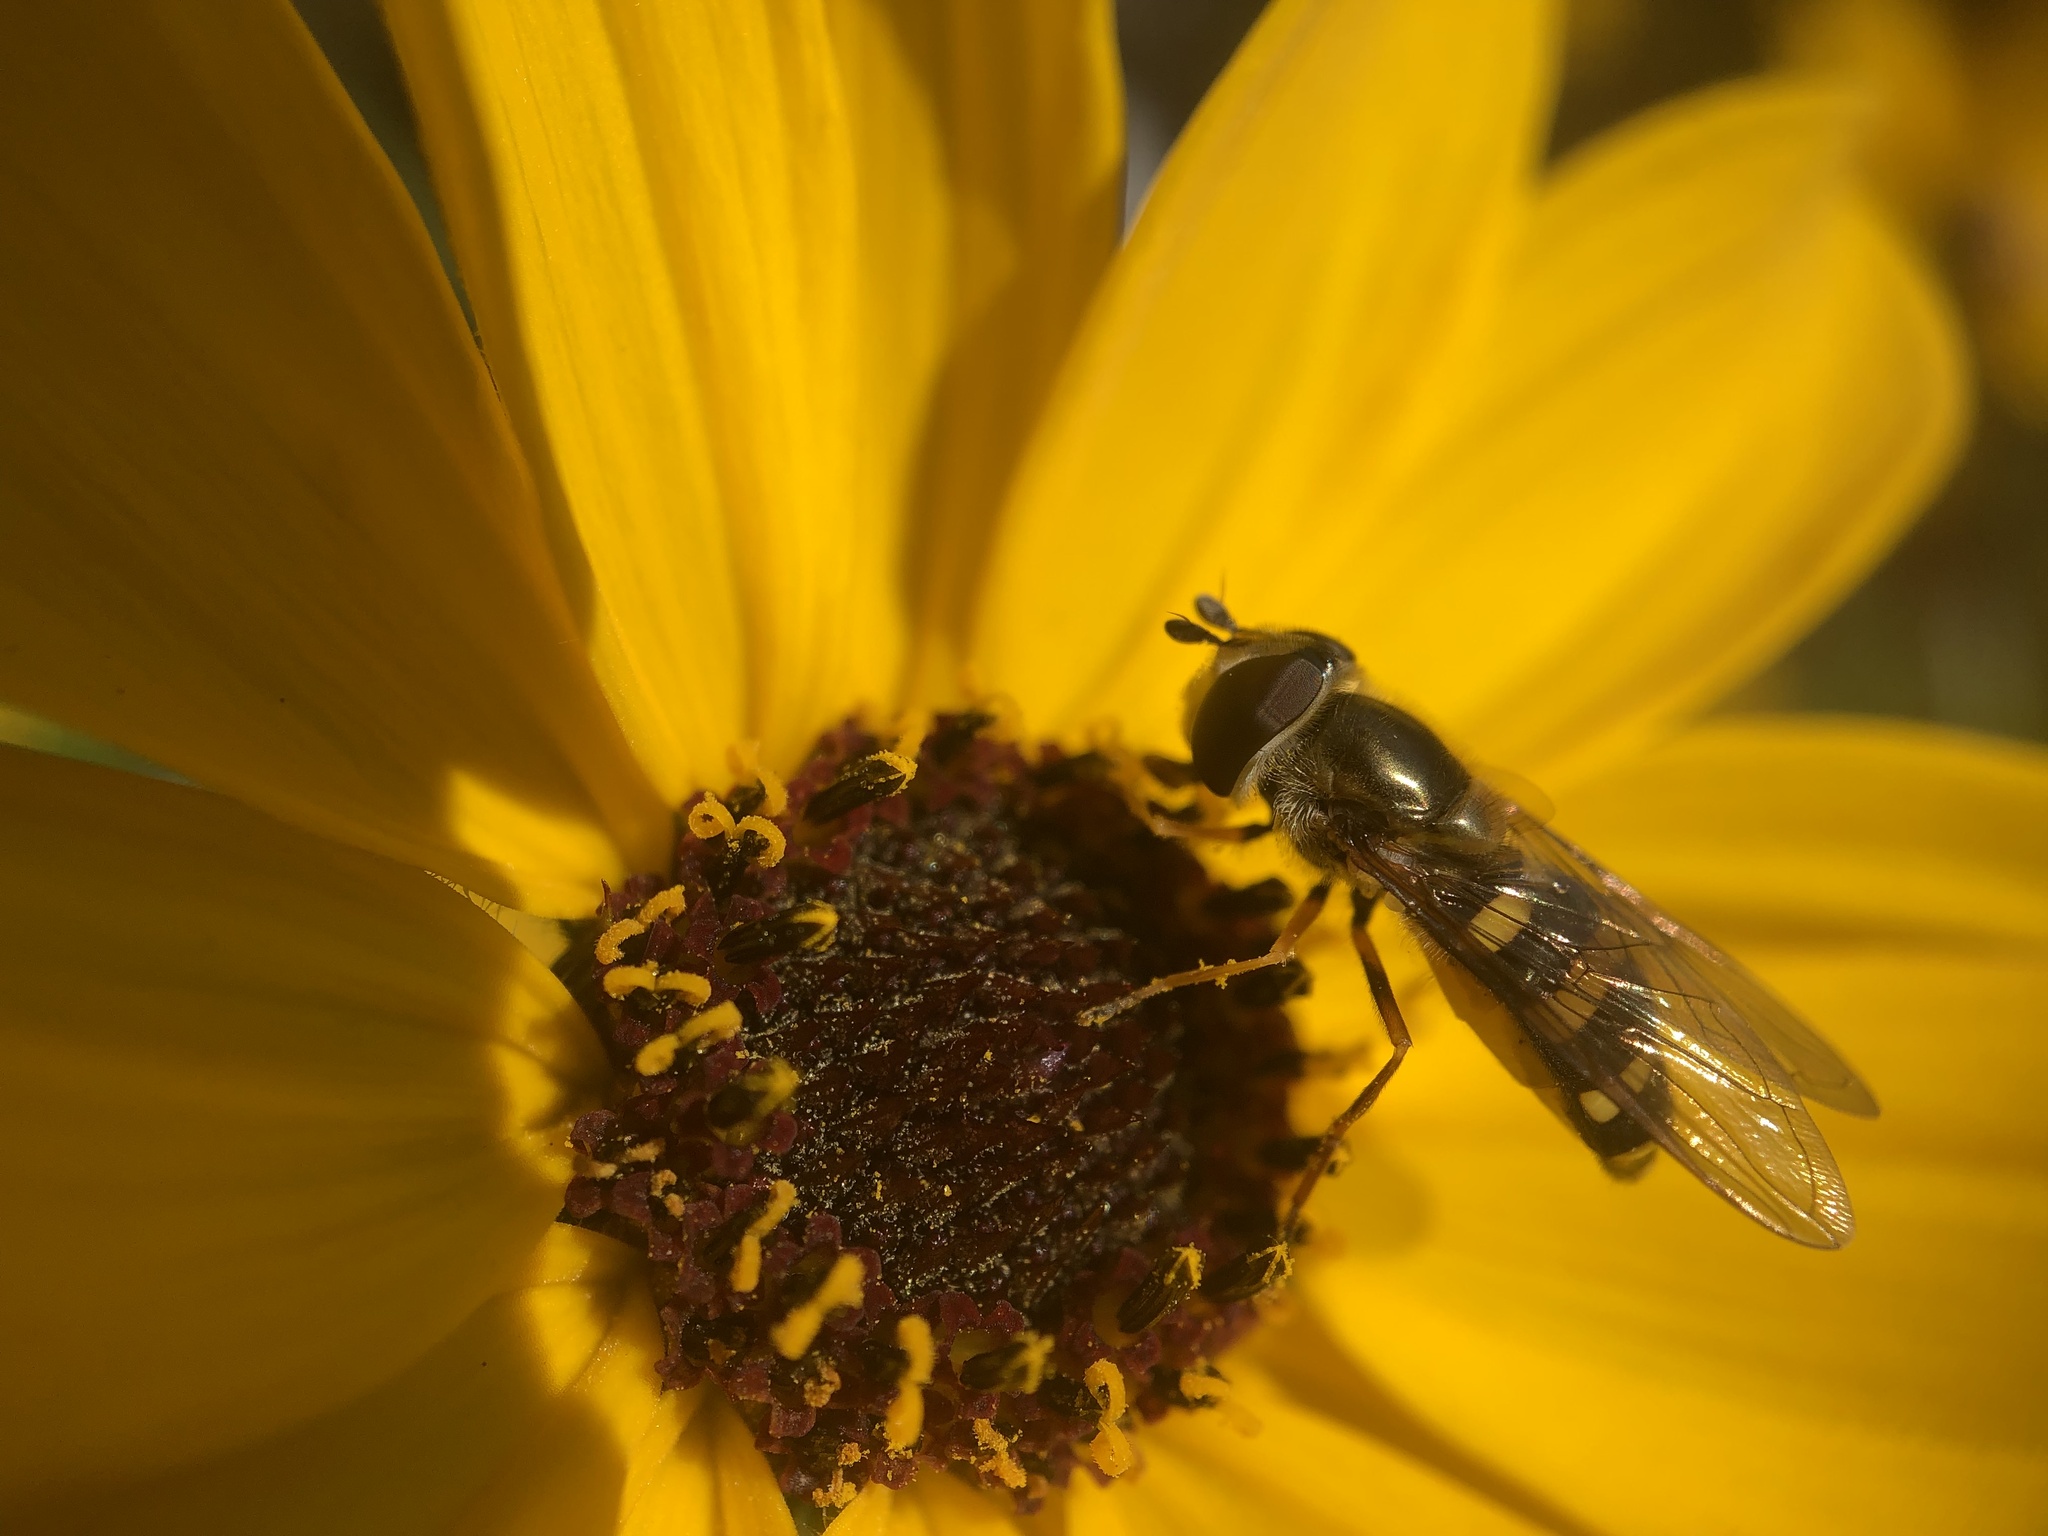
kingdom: Animalia
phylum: Arthropoda
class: Insecta
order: Diptera
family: Syrphidae
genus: Eupeodes
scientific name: Eupeodes
